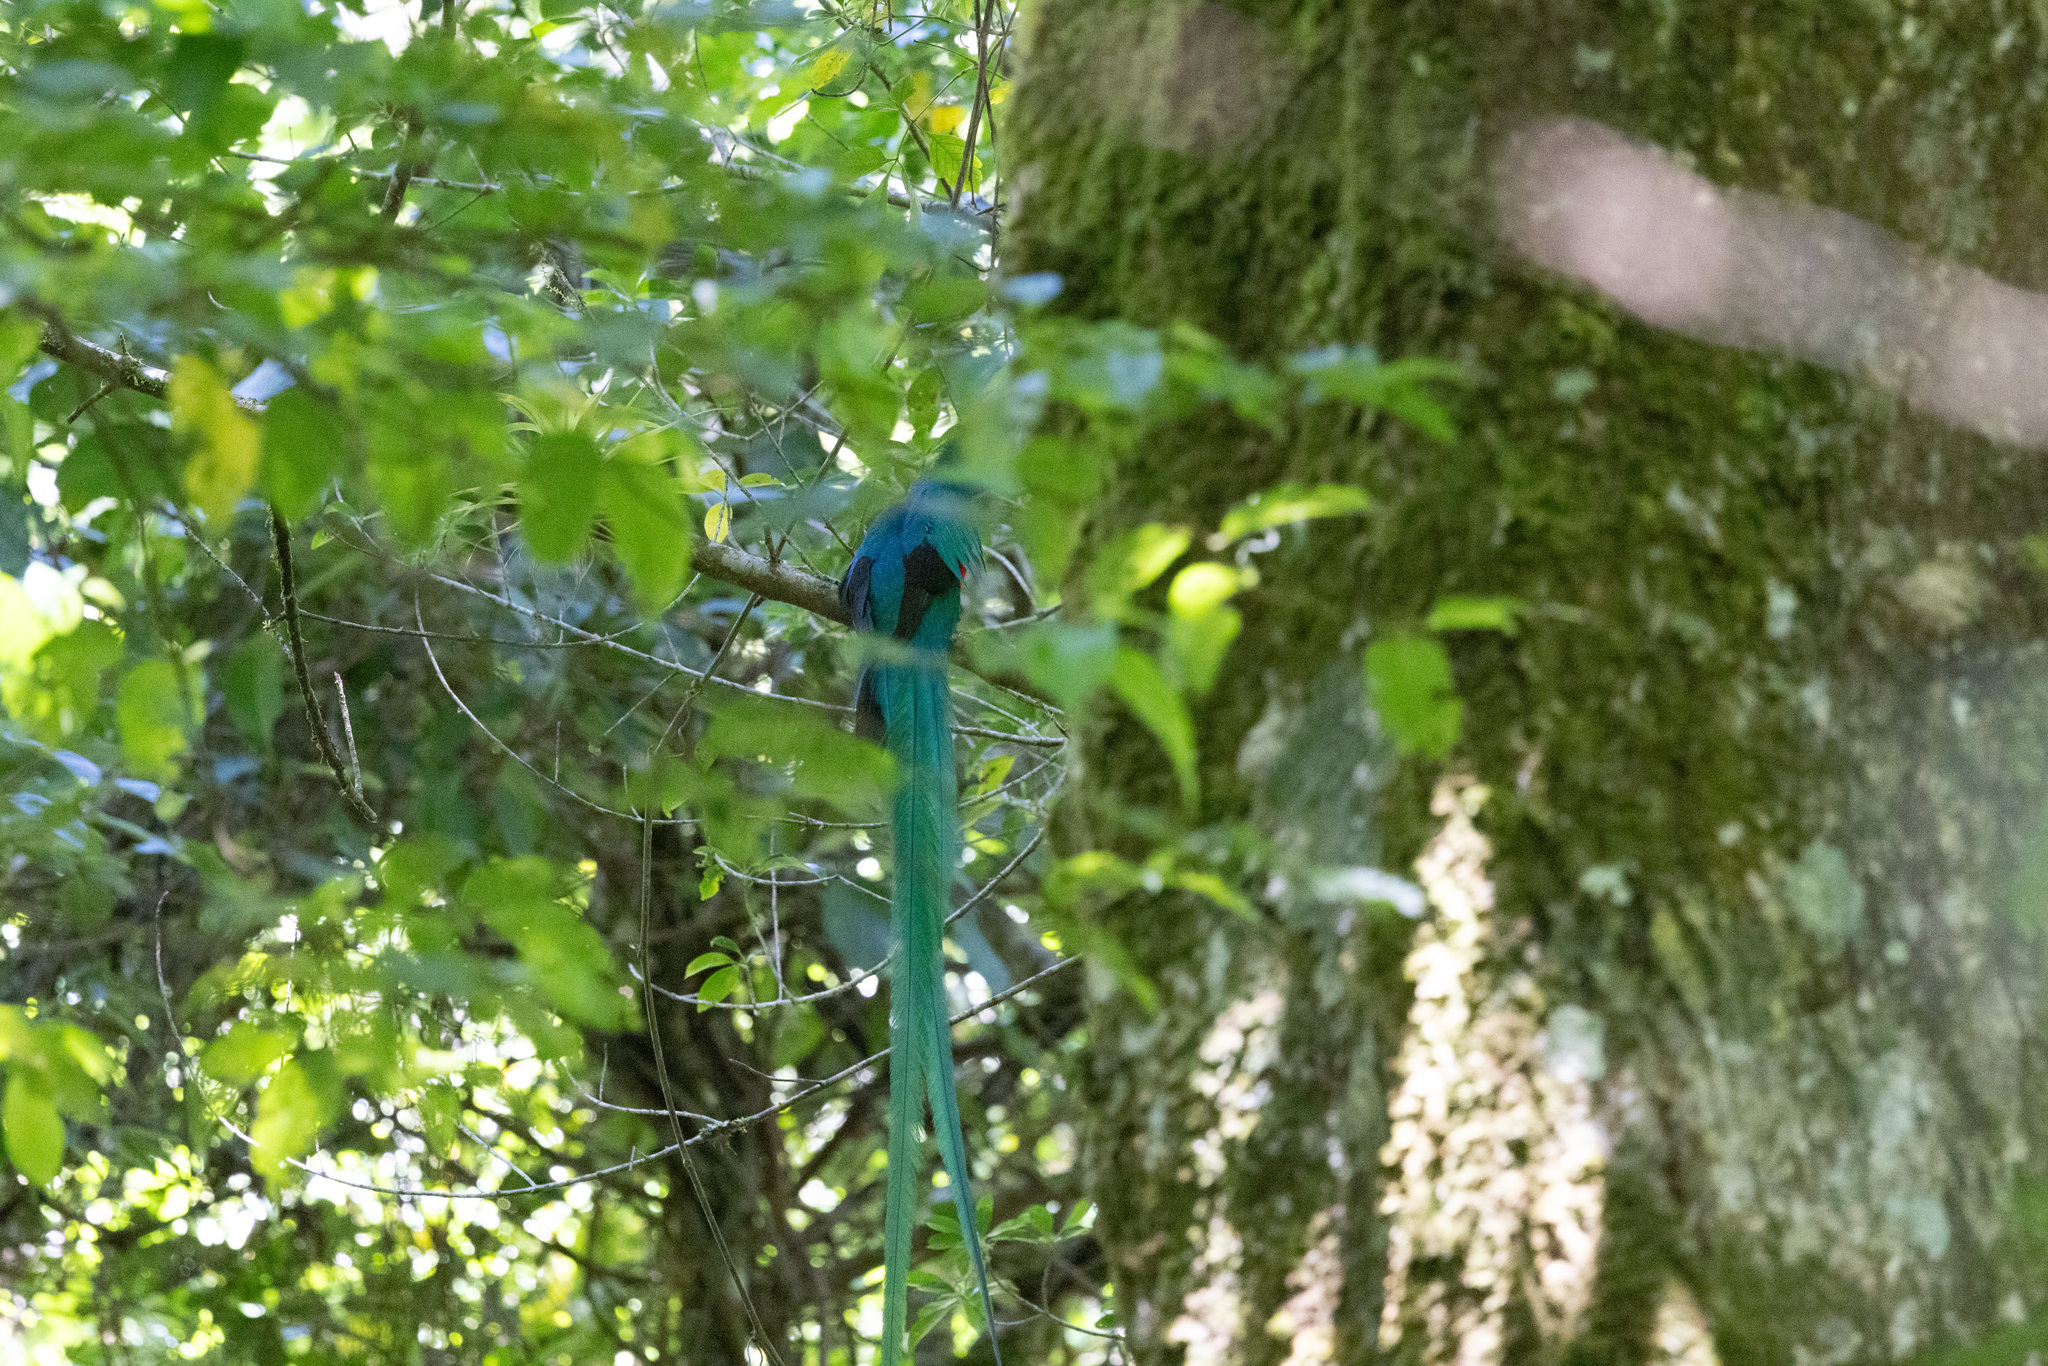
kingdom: Animalia
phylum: Chordata
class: Aves
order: Trogoniformes
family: Trogonidae
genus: Pharomachrus
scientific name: Pharomachrus mocinno
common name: Resplendent quetzal
